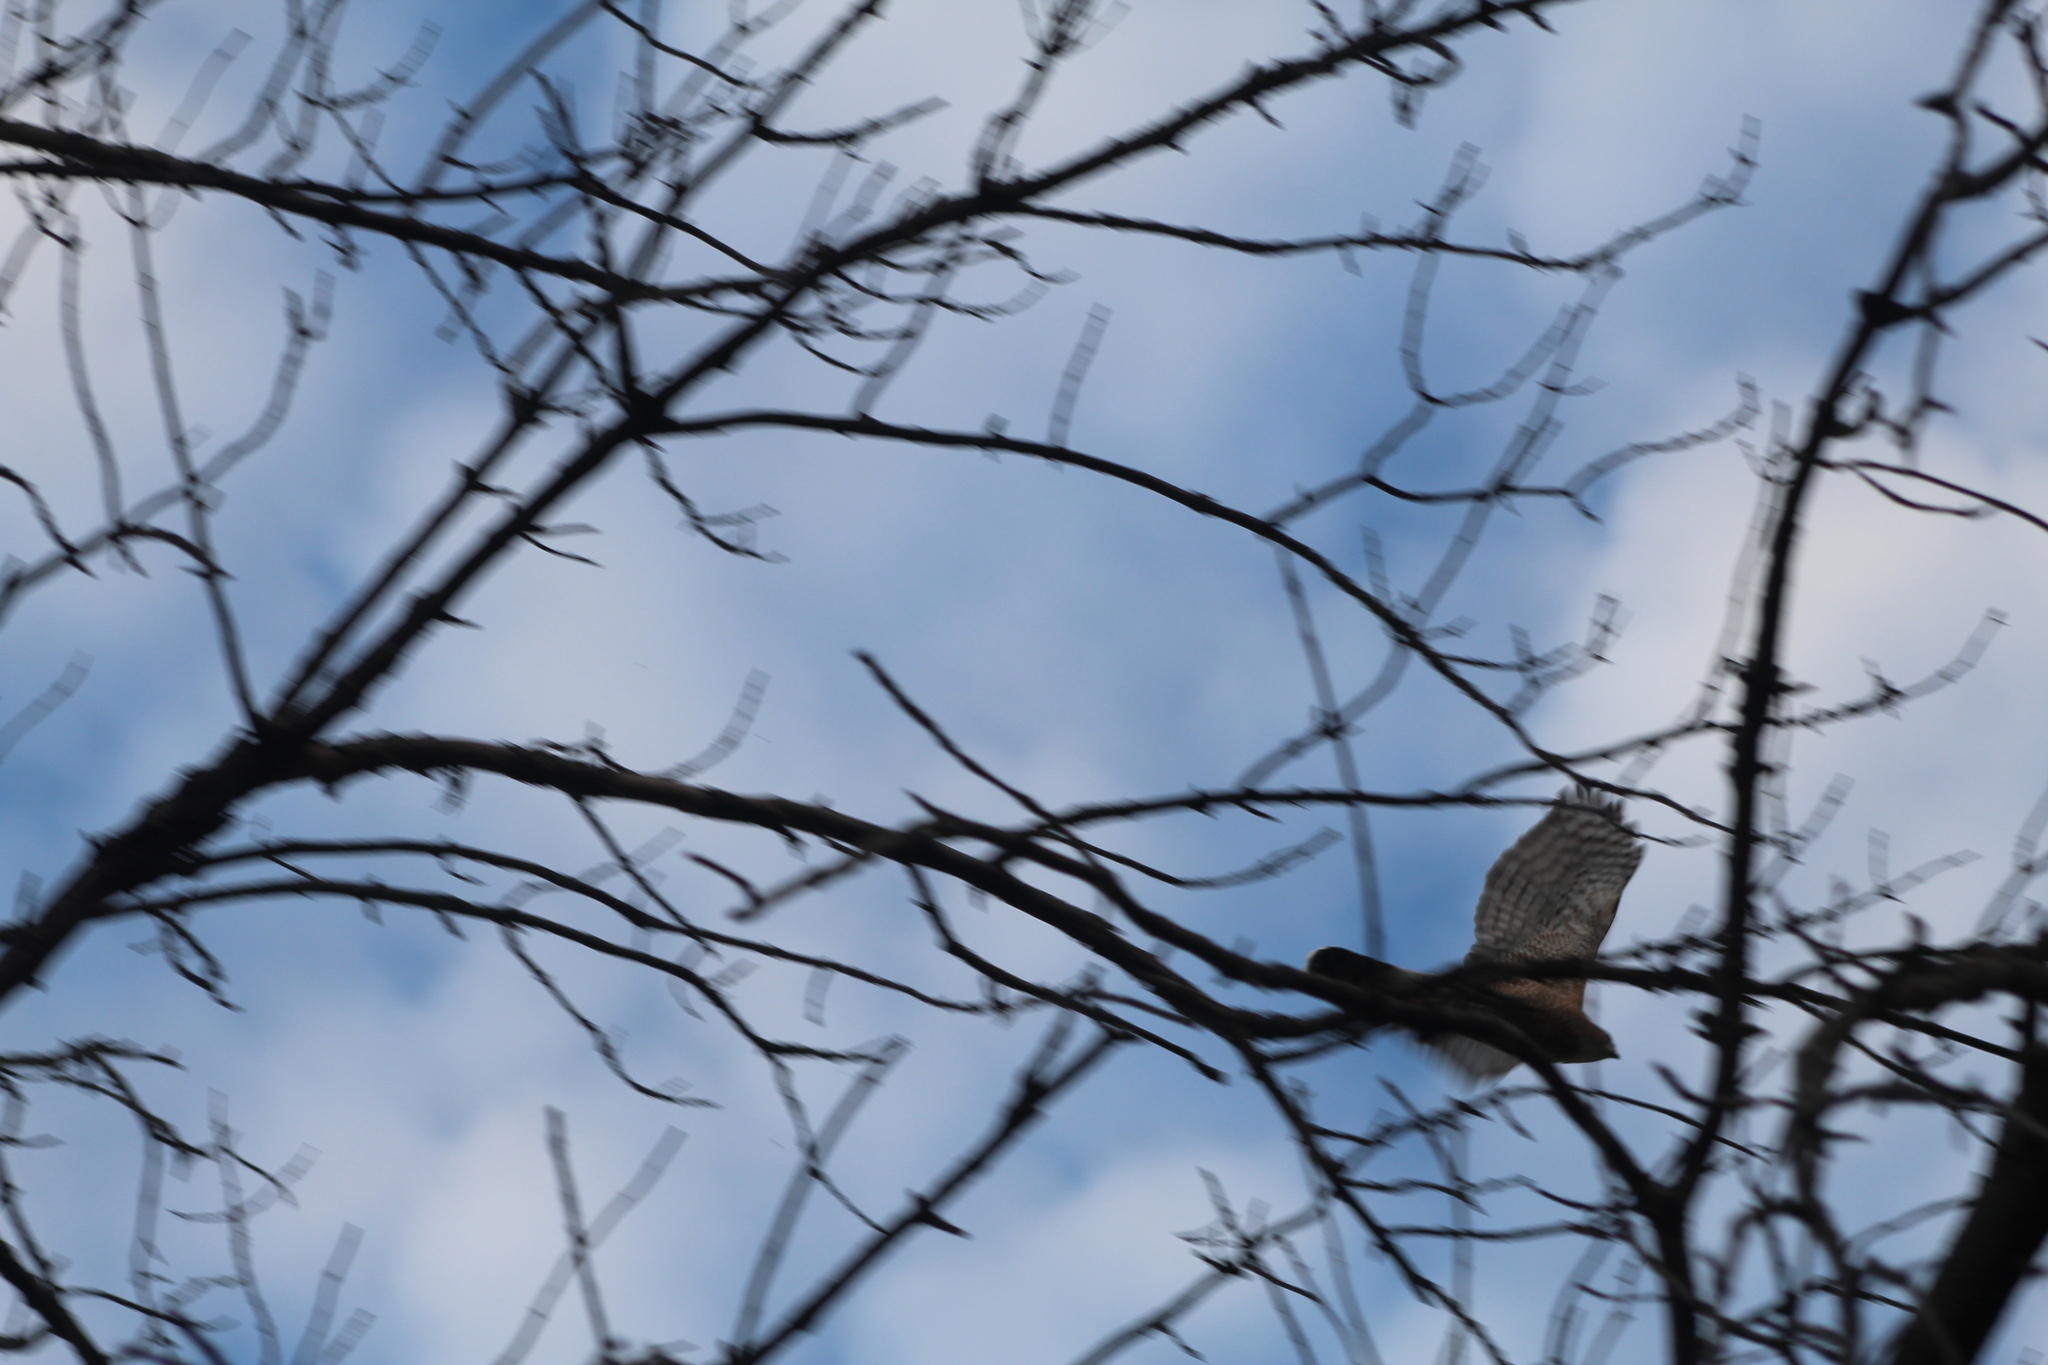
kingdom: Animalia
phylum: Chordata
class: Aves
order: Accipitriformes
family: Accipitridae
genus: Accipiter
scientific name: Accipiter cooperii
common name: Cooper's hawk
